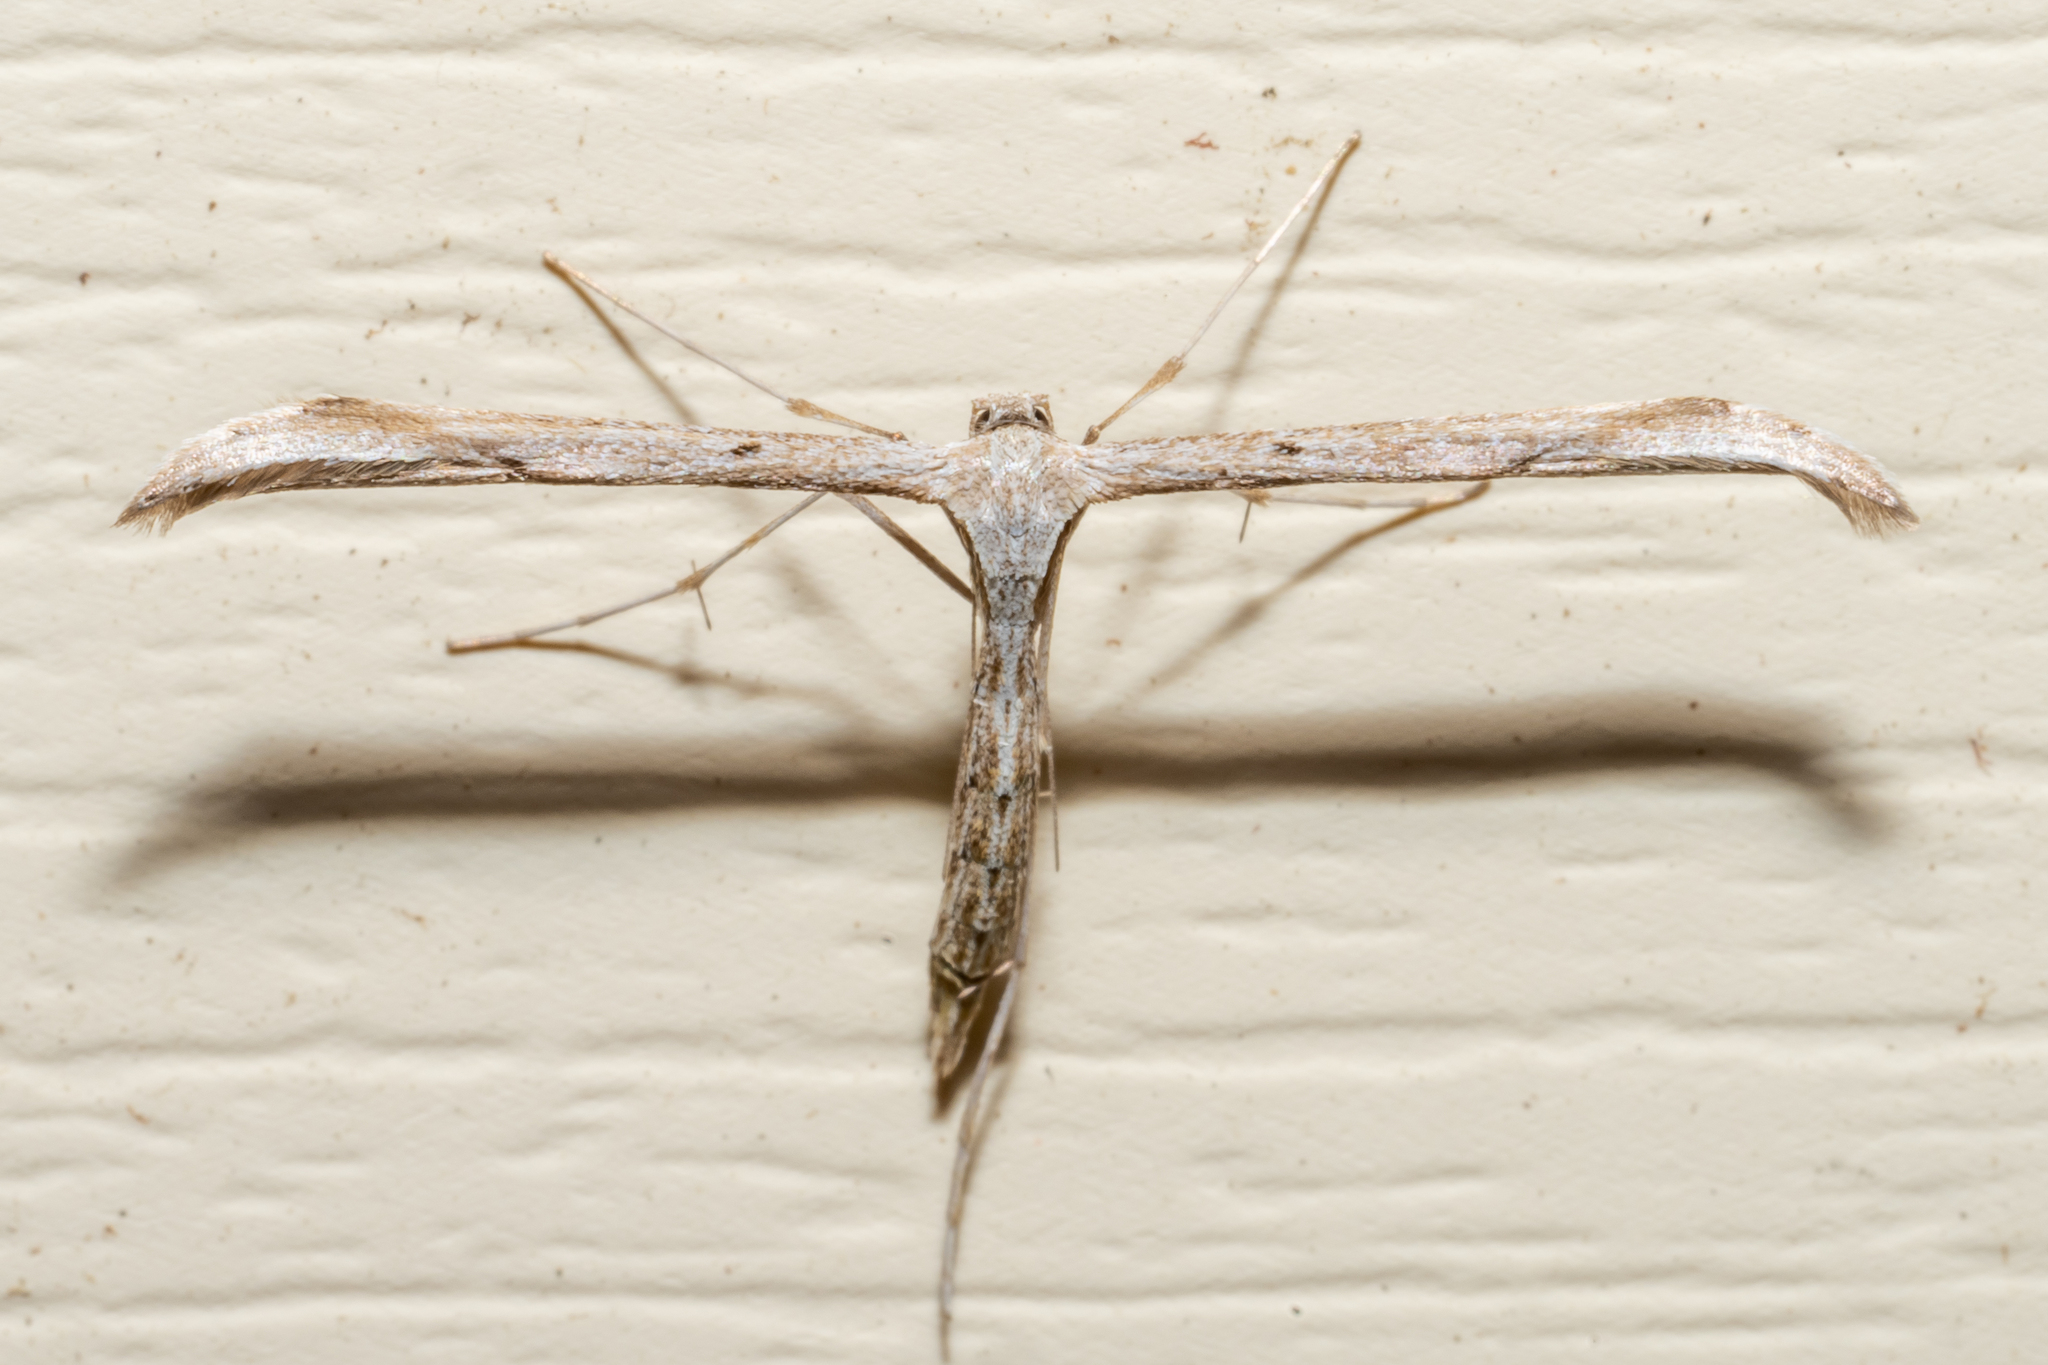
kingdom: Animalia
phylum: Arthropoda
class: Insecta
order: Lepidoptera
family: Pterophoridae
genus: Emmelina
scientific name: Emmelina monodactyla
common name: Common plume
